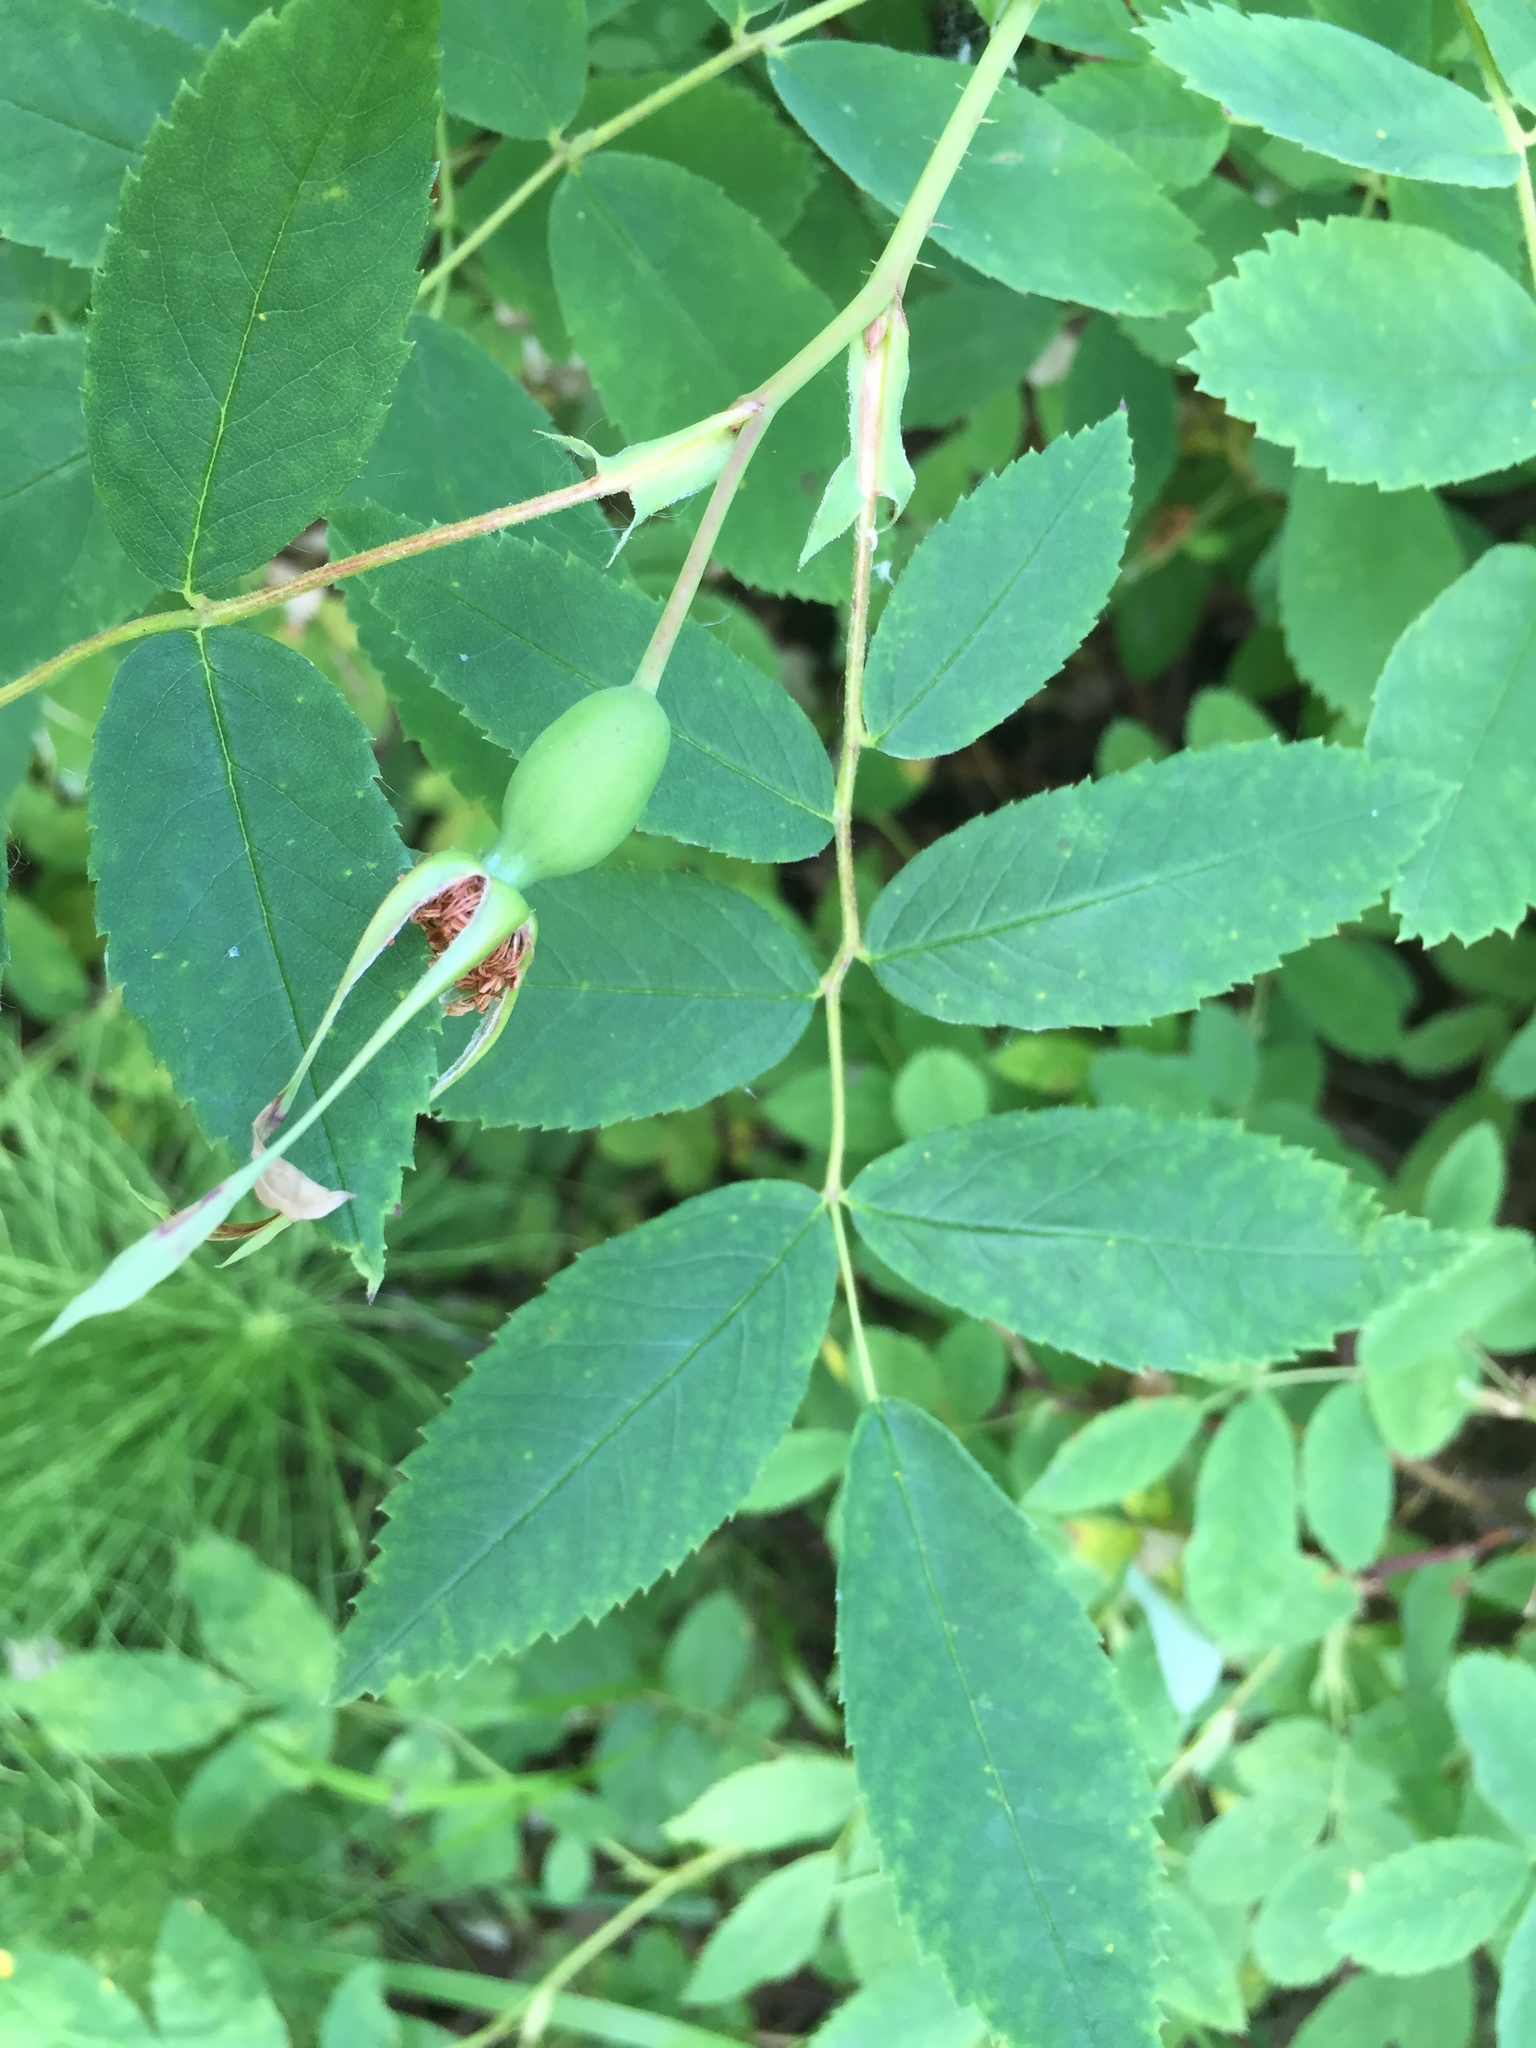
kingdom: Plantae
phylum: Tracheophyta
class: Magnoliopsida
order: Rosales
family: Rosaceae
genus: Rosa
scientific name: Rosa acicularis
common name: Prickly rose
